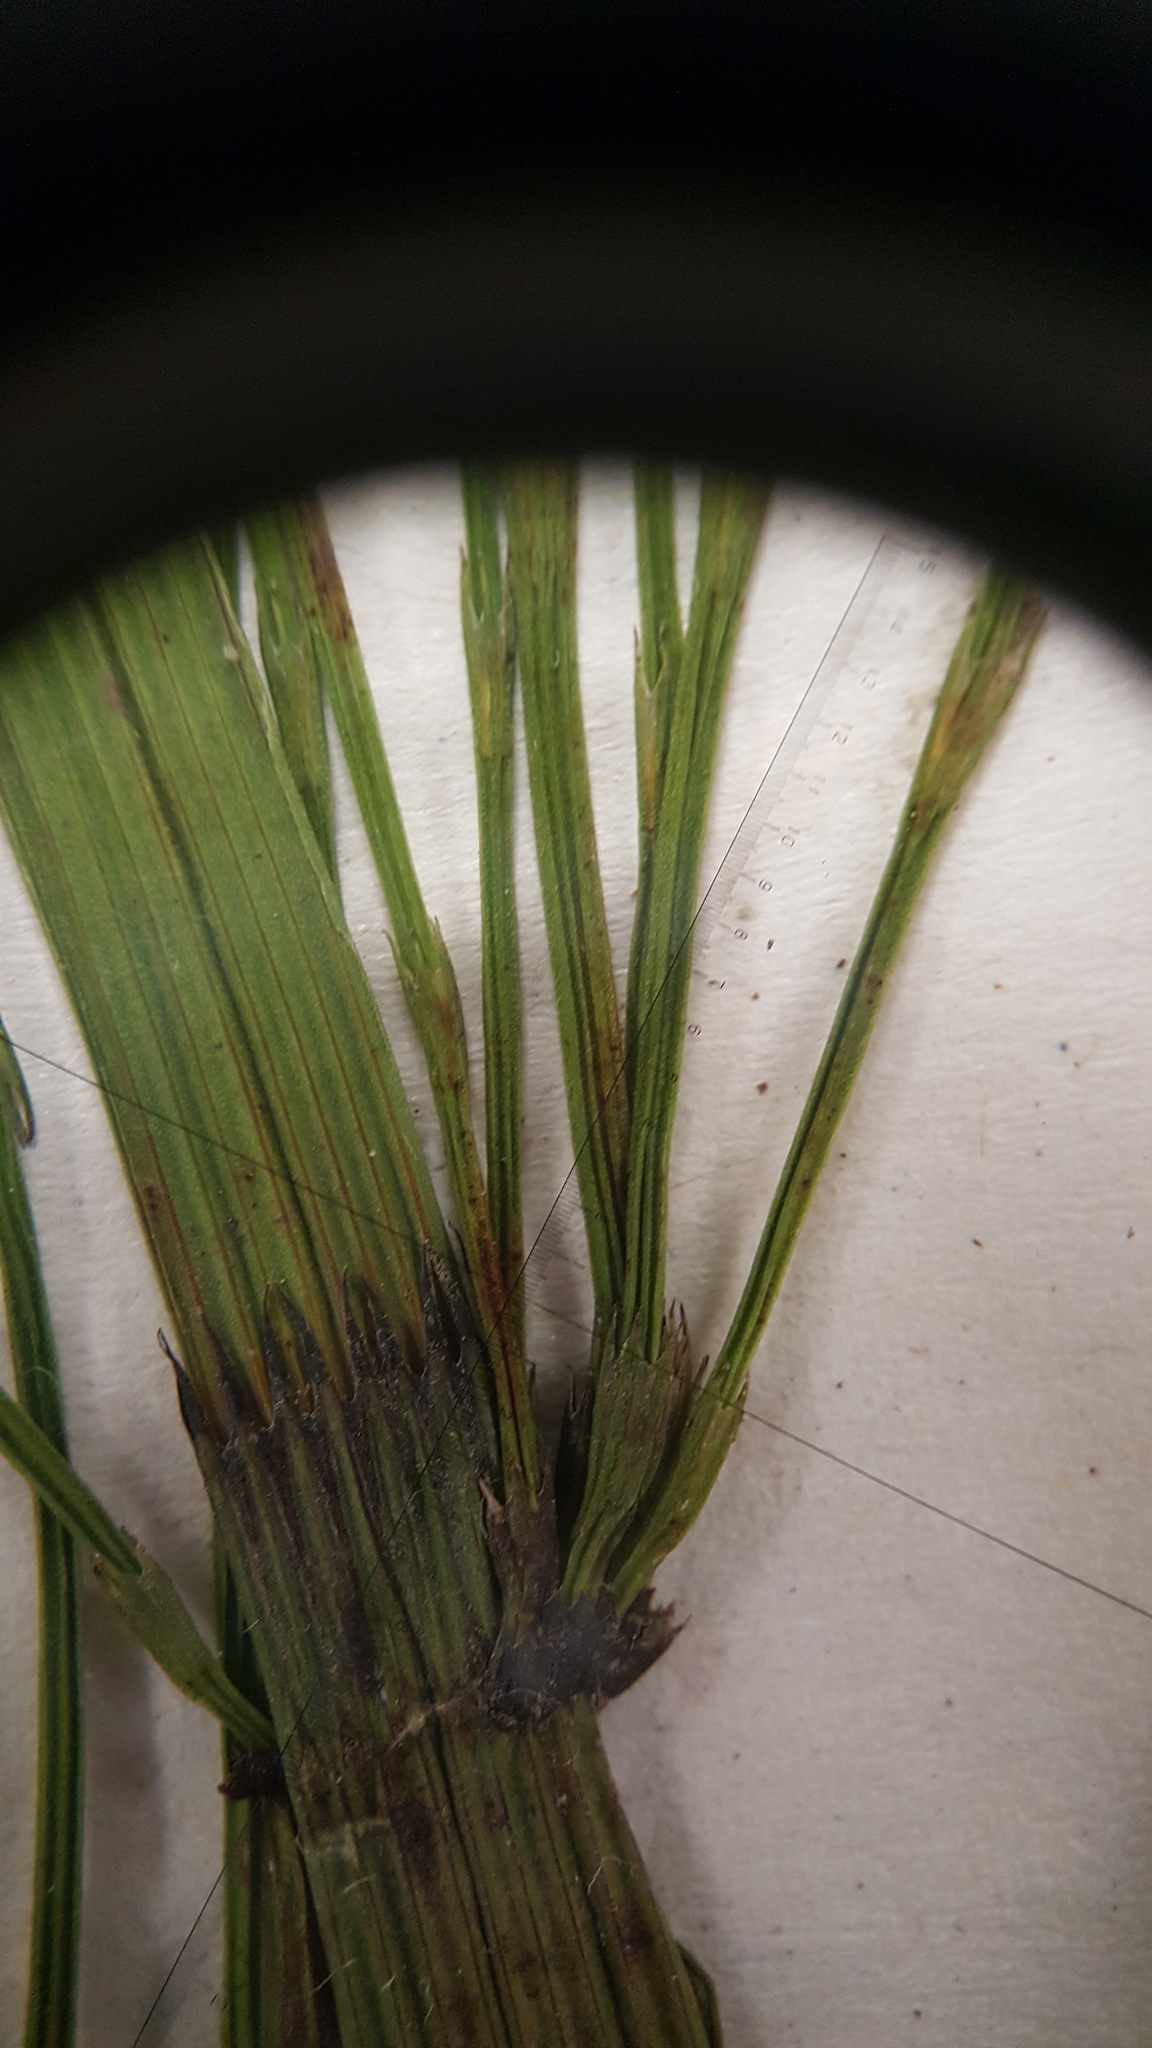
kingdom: Plantae
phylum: Tracheophyta
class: Polypodiopsida
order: Equisetales
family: Equisetaceae
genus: Equisetum
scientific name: Equisetum fluviatile
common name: Water horsetail
